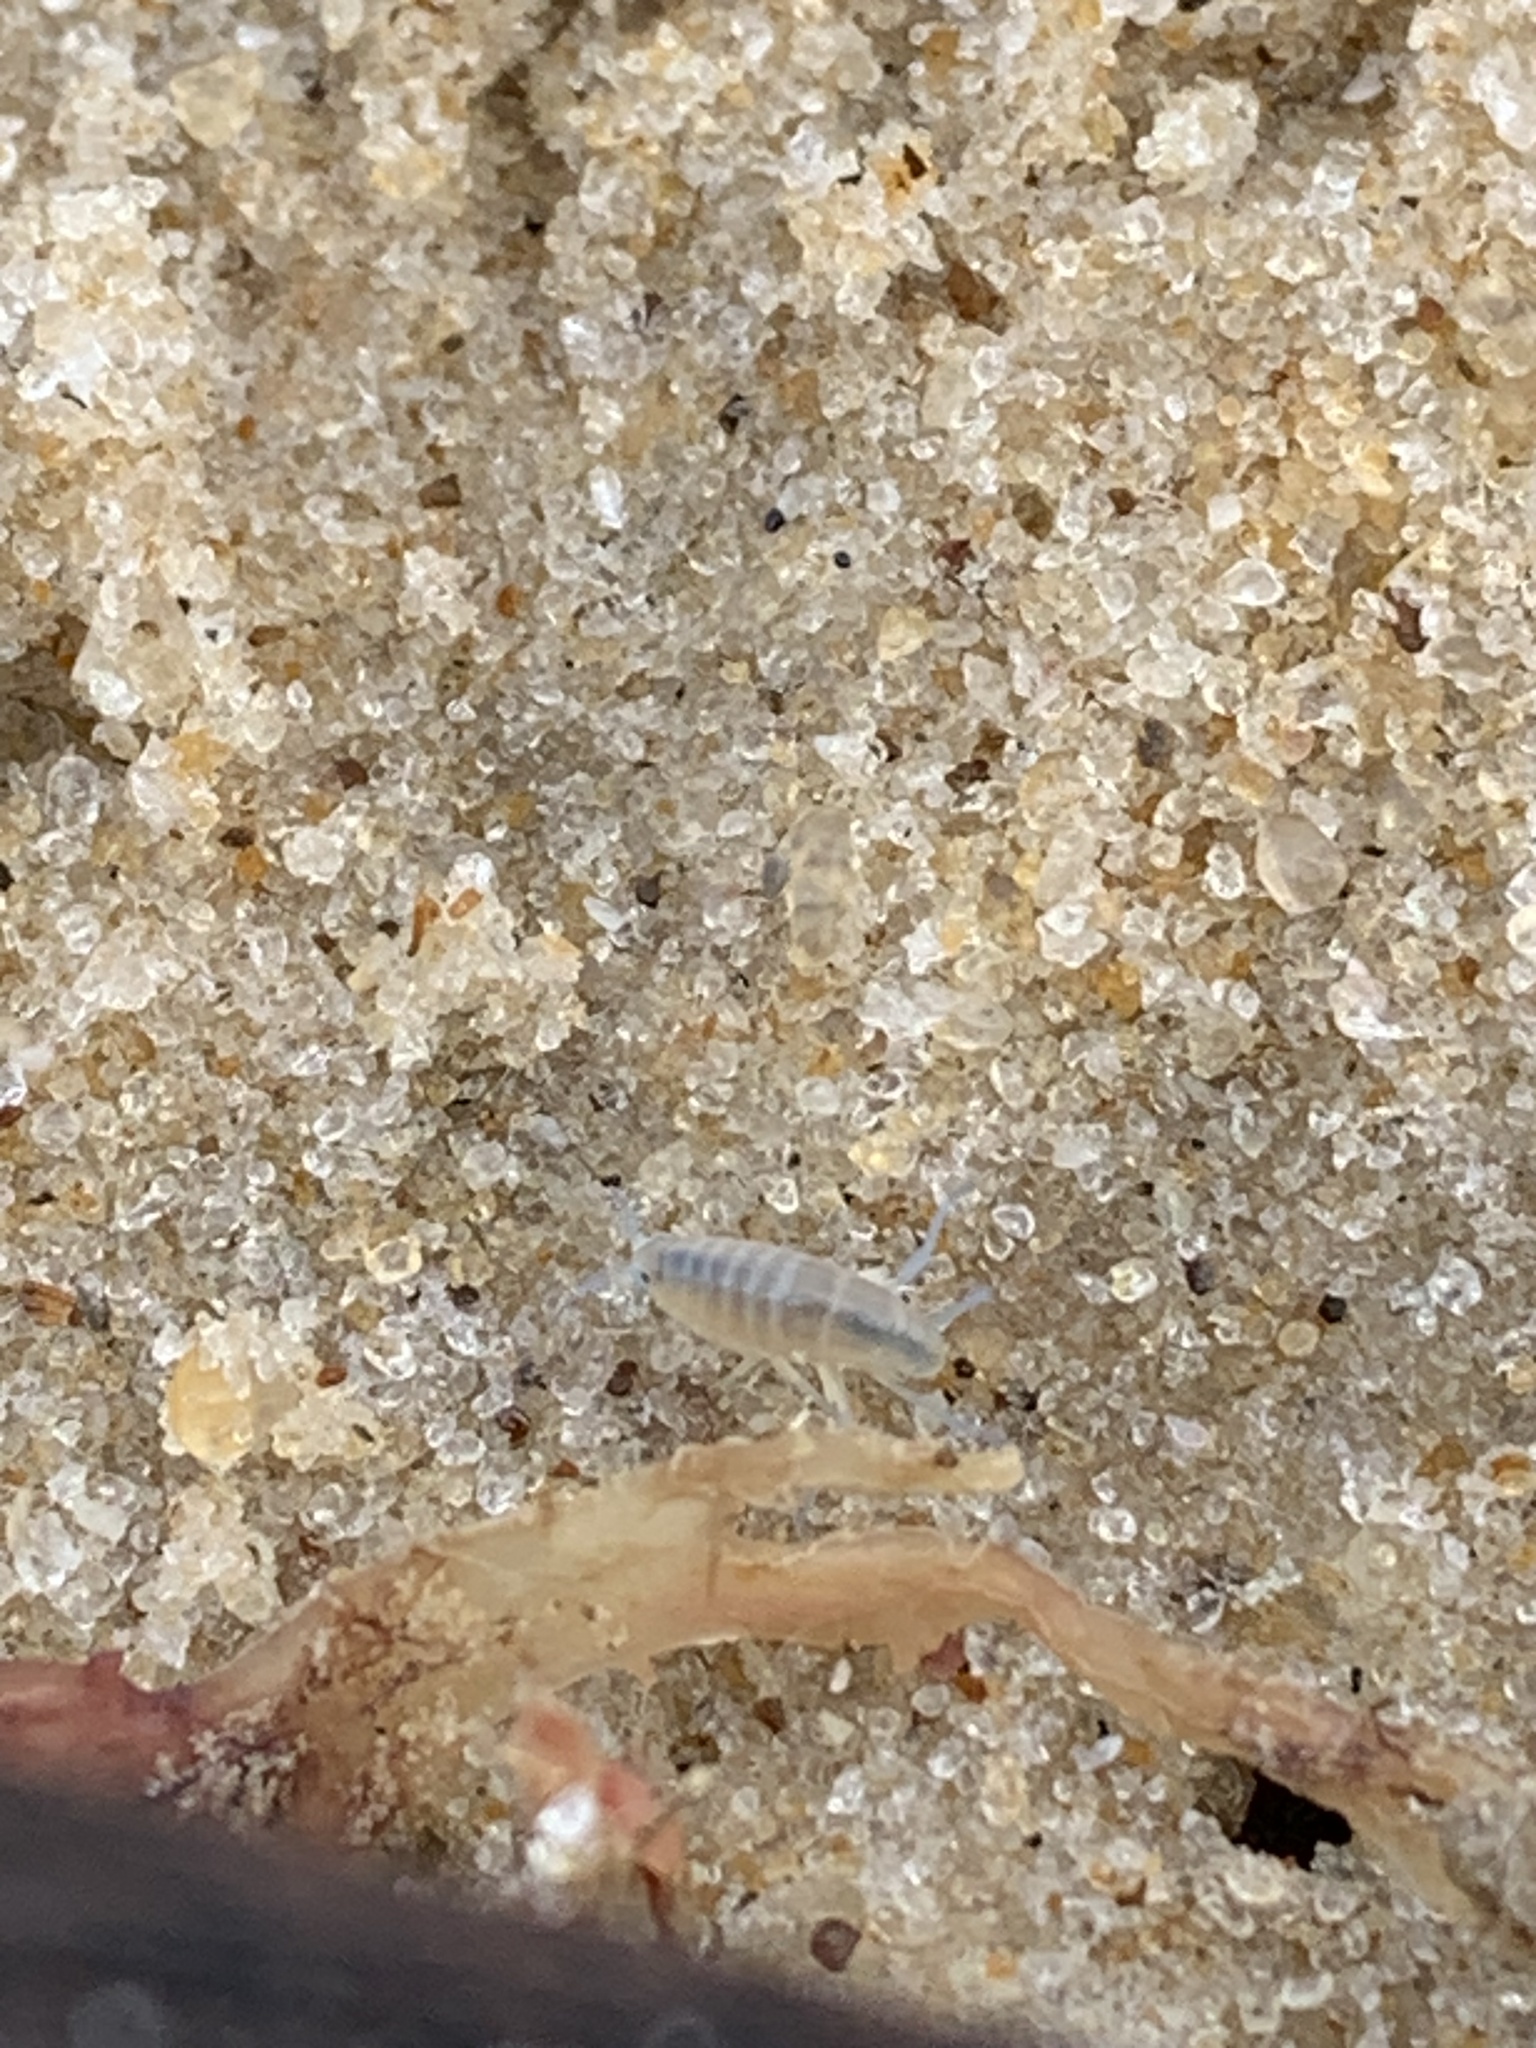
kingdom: Animalia
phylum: Arthropoda
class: Malacostraca
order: Amphipoda
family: Talitridae
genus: Talitrus
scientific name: Talitrus saltator
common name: Sand hopper
